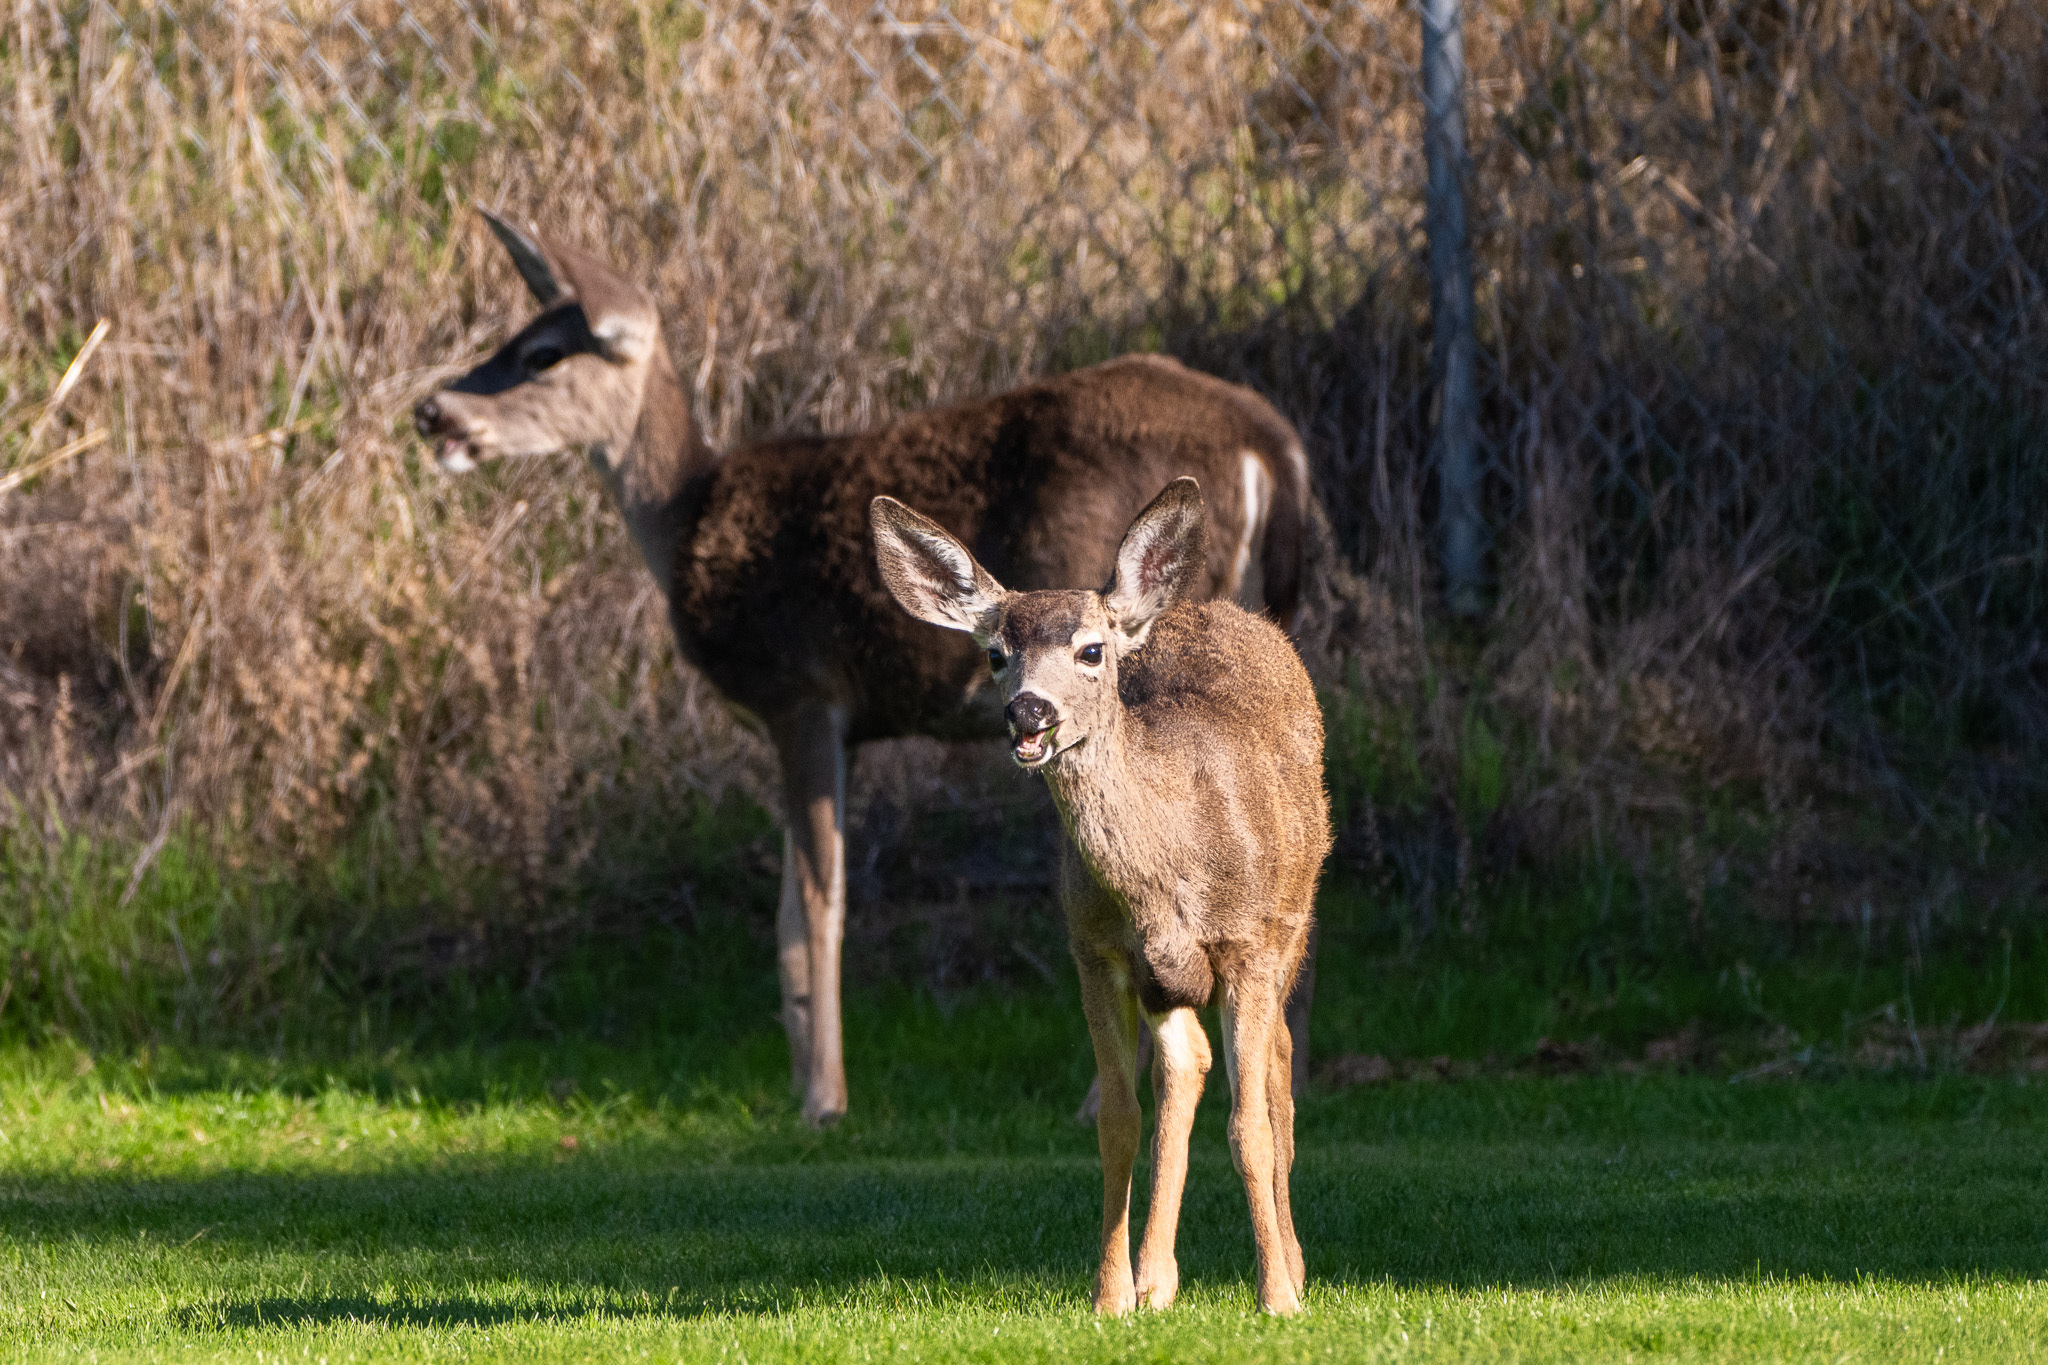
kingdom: Animalia
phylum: Chordata
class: Mammalia
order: Artiodactyla
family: Cervidae
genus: Odocoileus
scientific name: Odocoileus hemionus
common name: Mule deer
